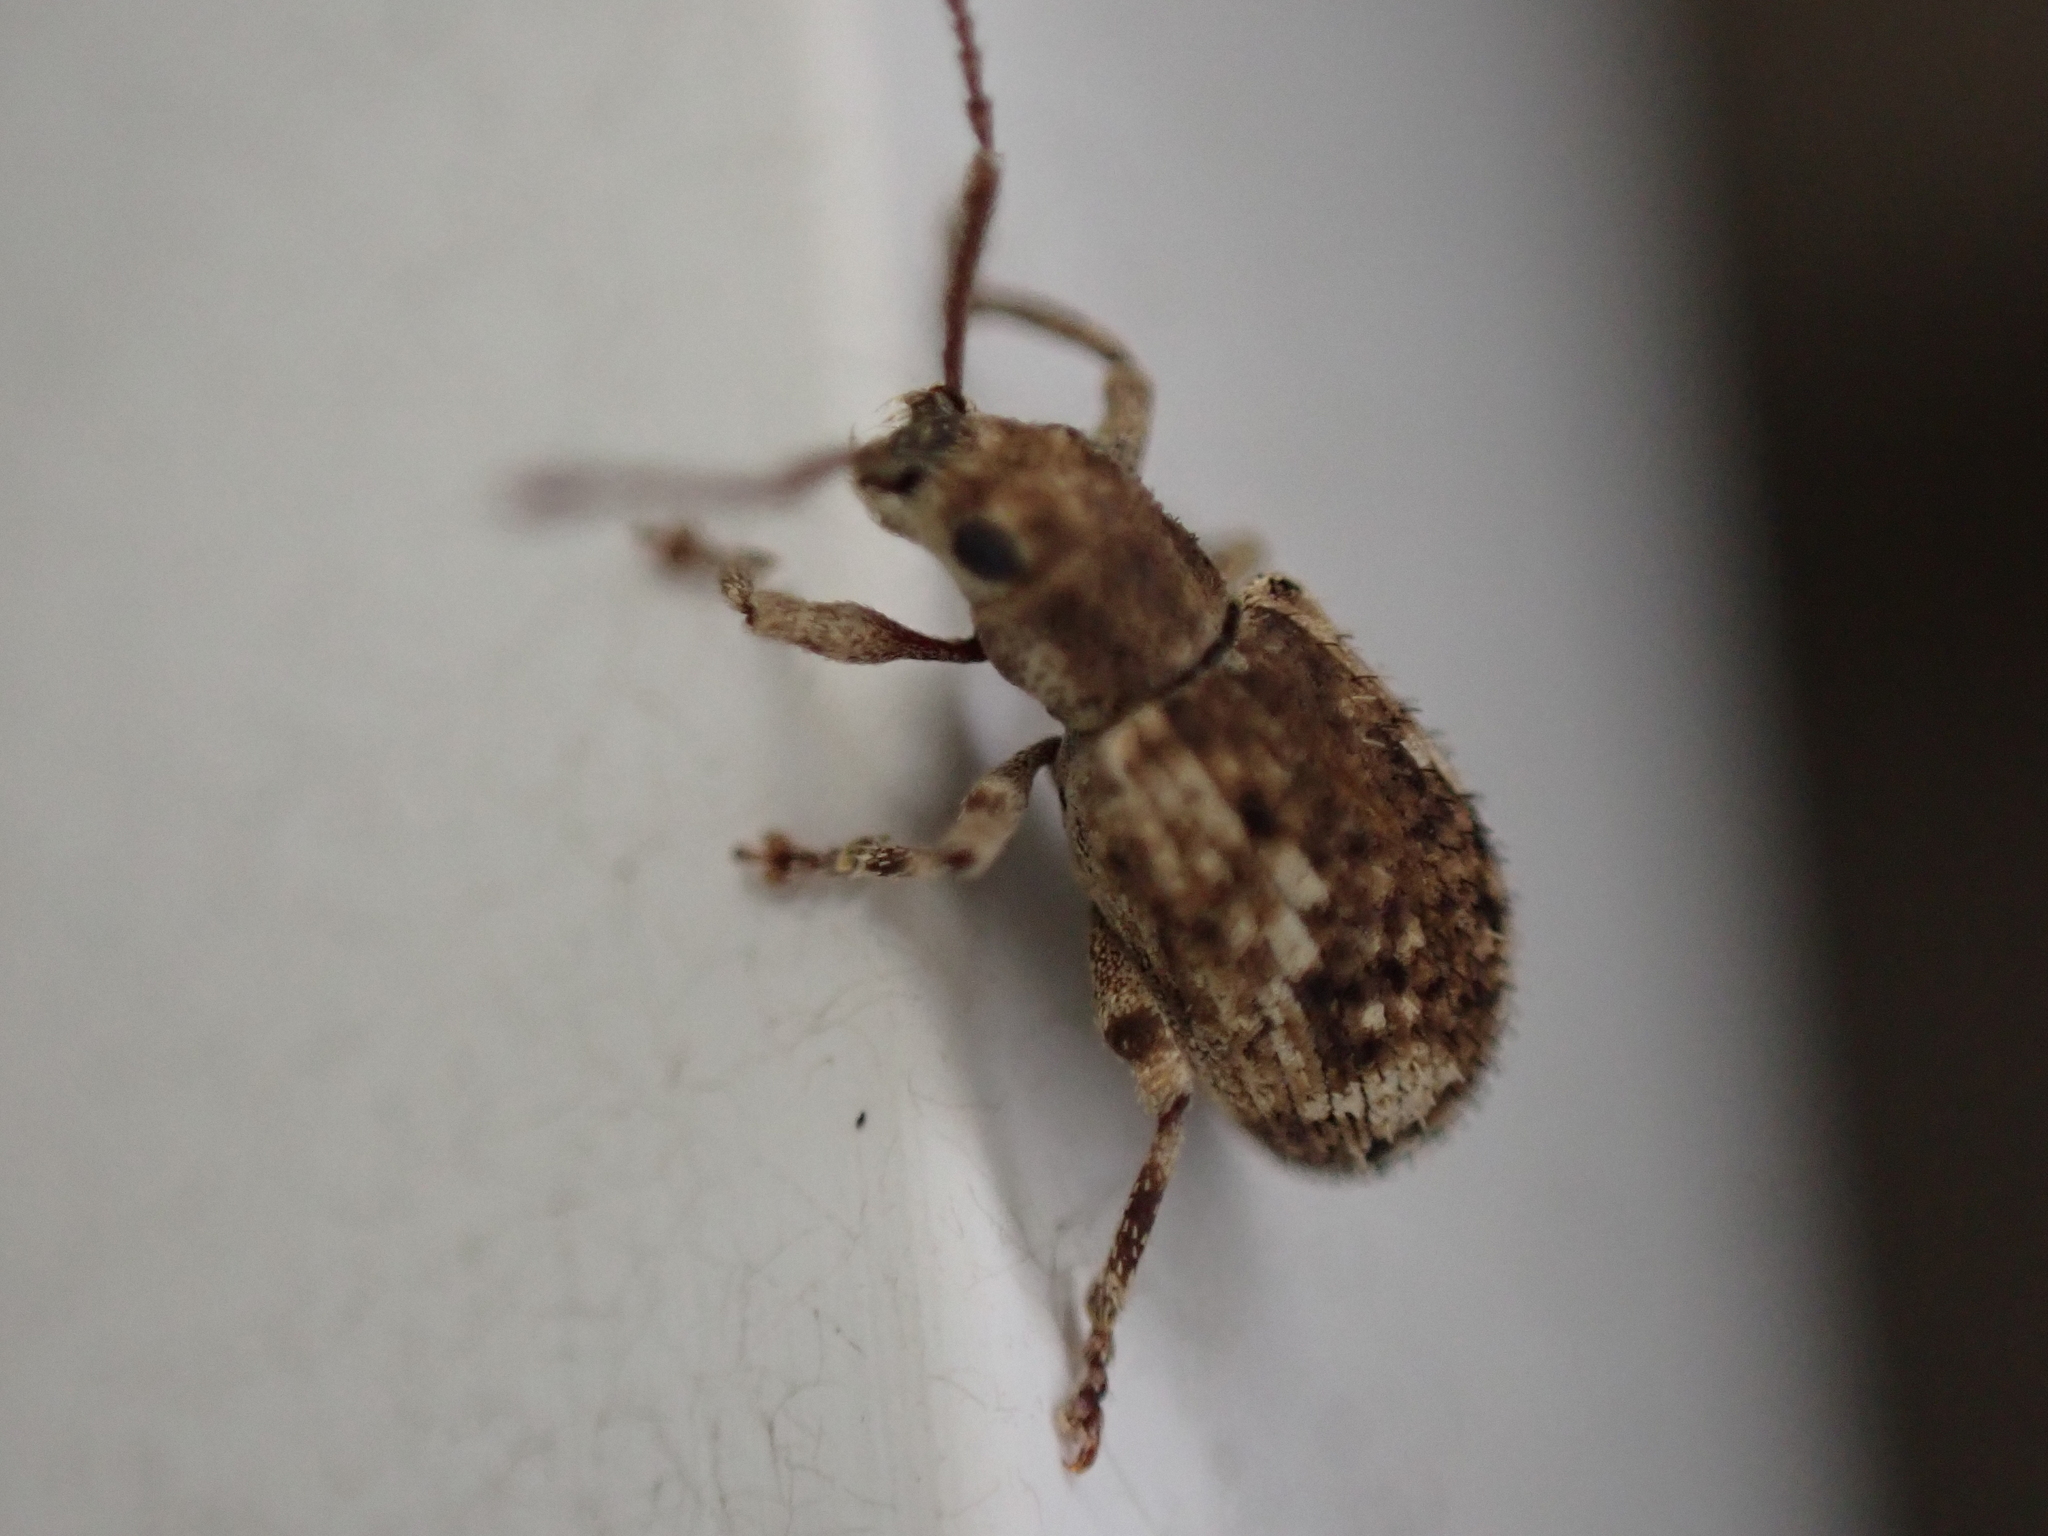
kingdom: Animalia
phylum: Arthropoda
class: Insecta
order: Coleoptera
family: Curculionidae
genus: Pseudoedophrys
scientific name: Pseudoedophrys hilleri
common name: Weevil
